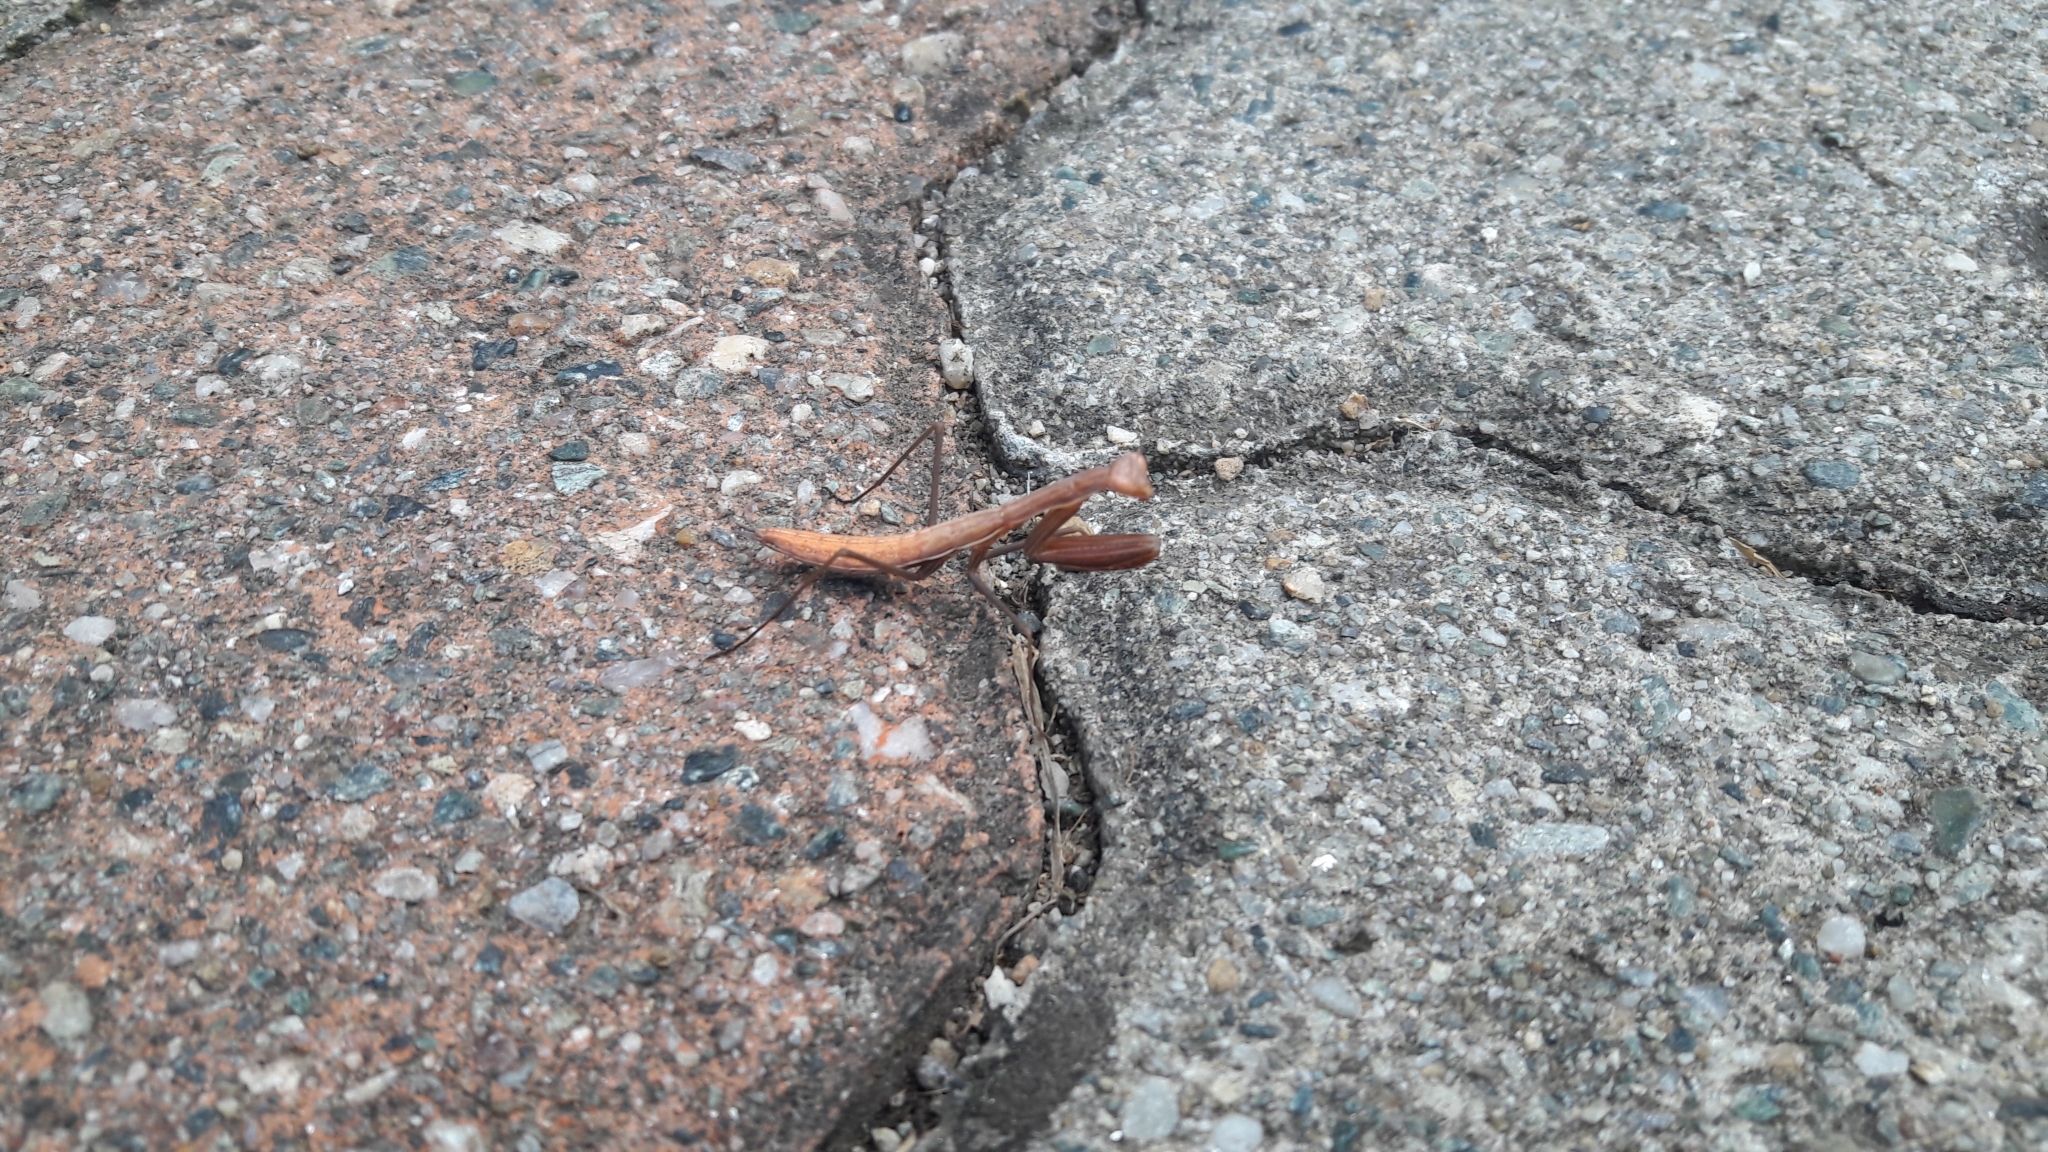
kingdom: Animalia
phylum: Arthropoda
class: Insecta
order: Mantodea
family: Mantidae
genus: Mantis
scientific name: Mantis religiosa
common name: Praying mantis
